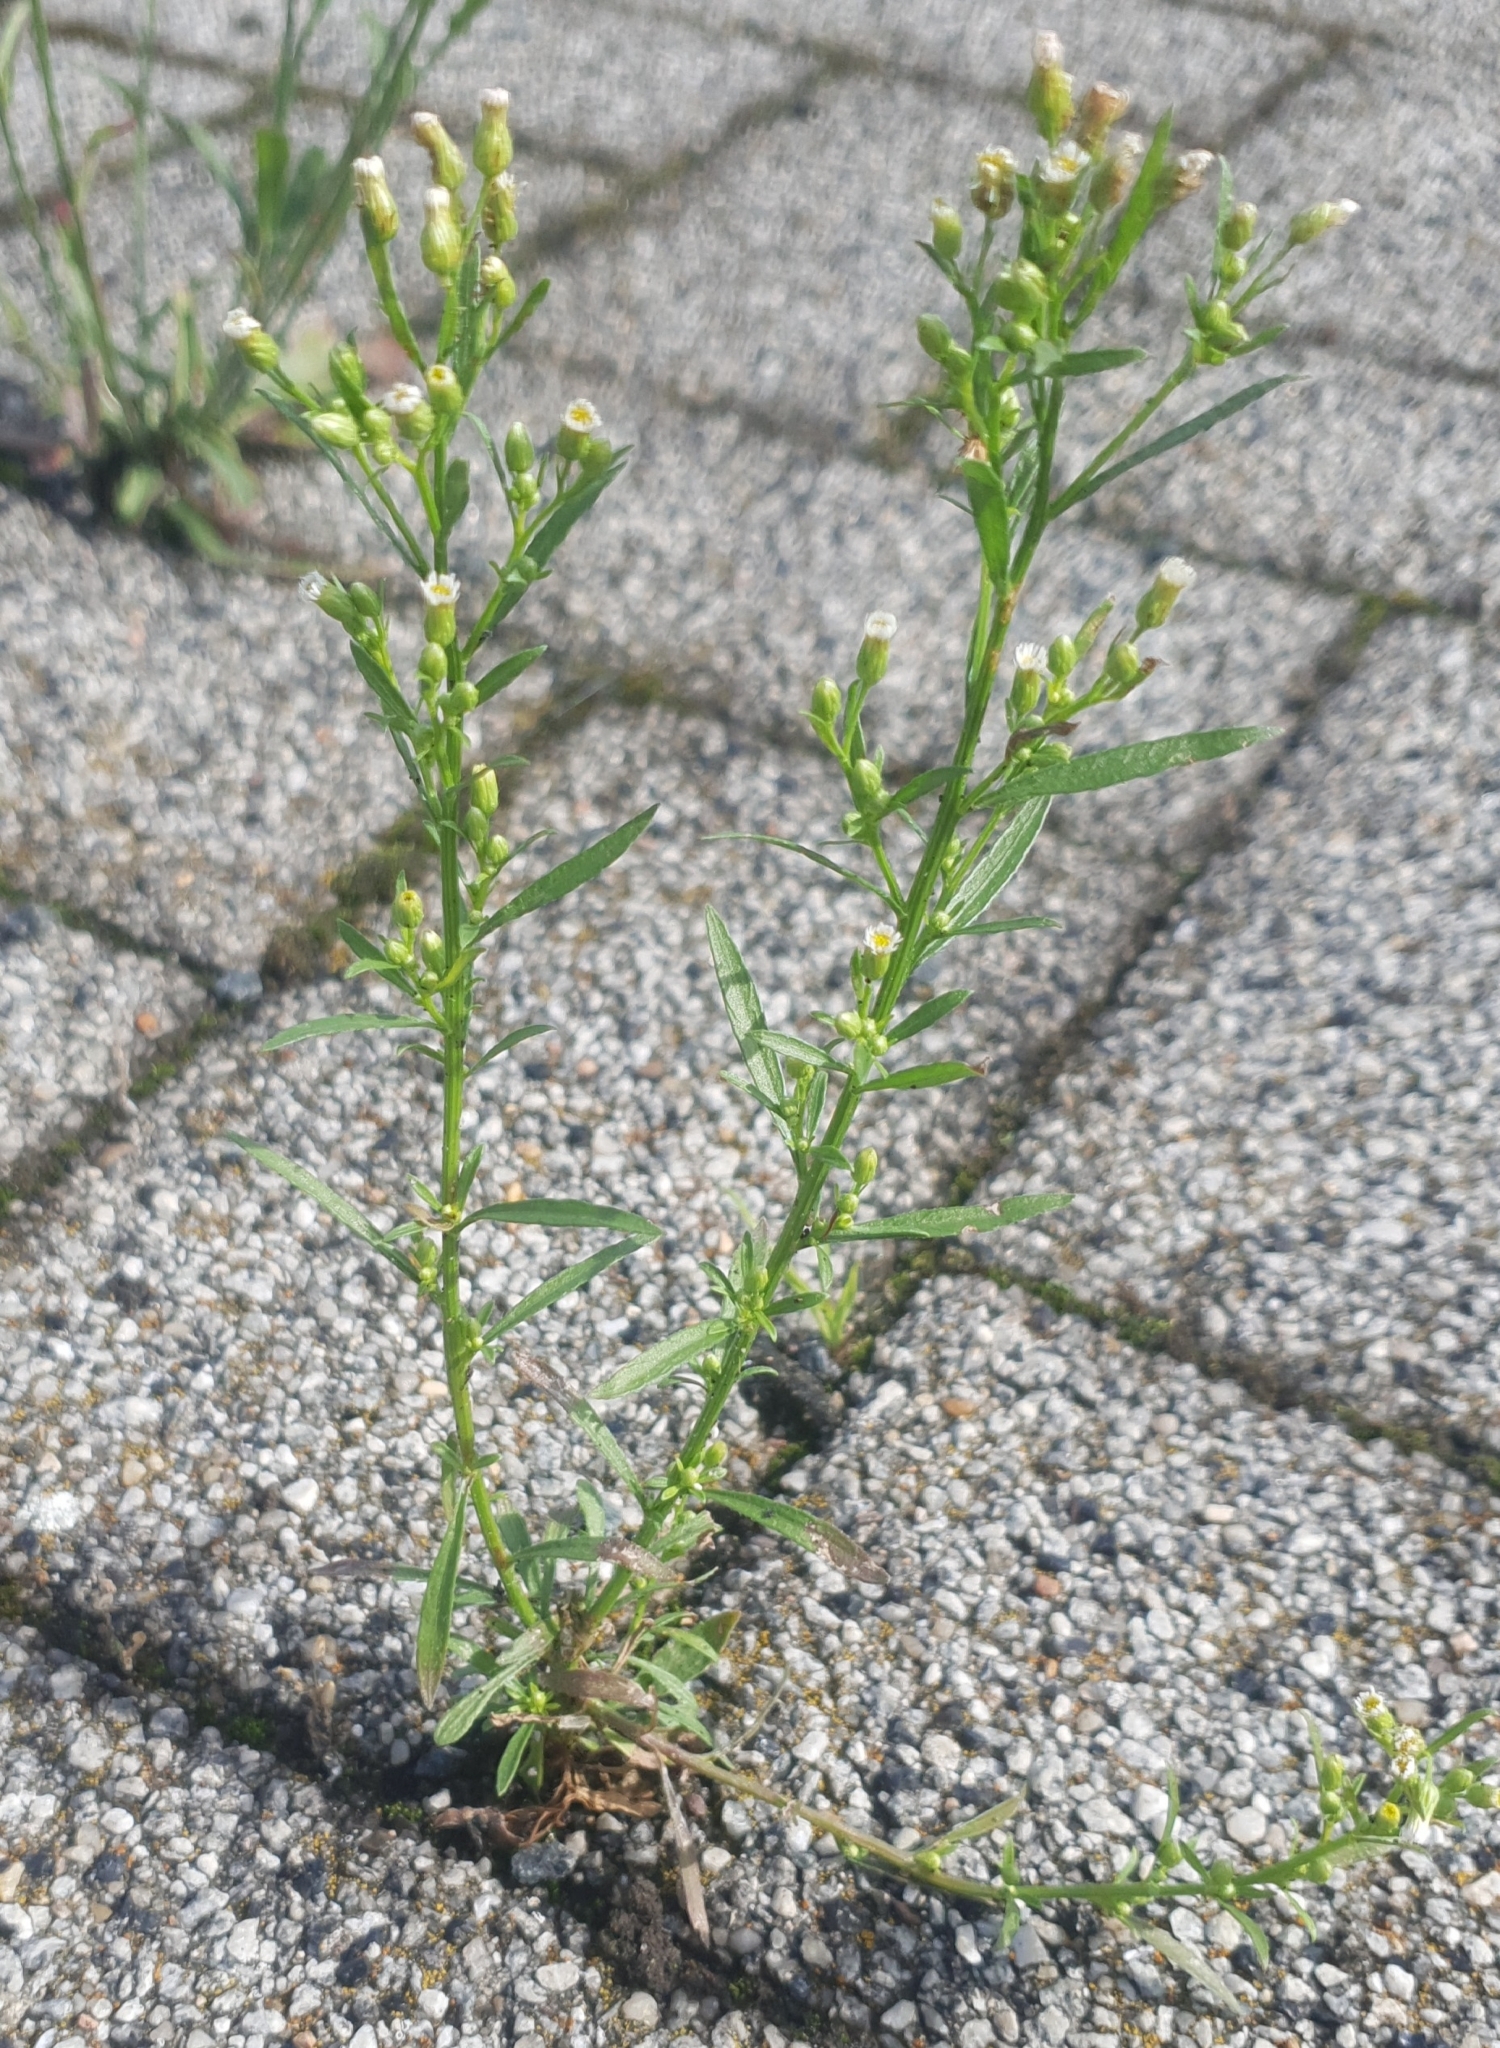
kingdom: Plantae
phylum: Tracheophyta
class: Magnoliopsida
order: Asterales
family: Asteraceae
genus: Erigeron
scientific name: Erigeron canadensis
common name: Canadian fleabane
